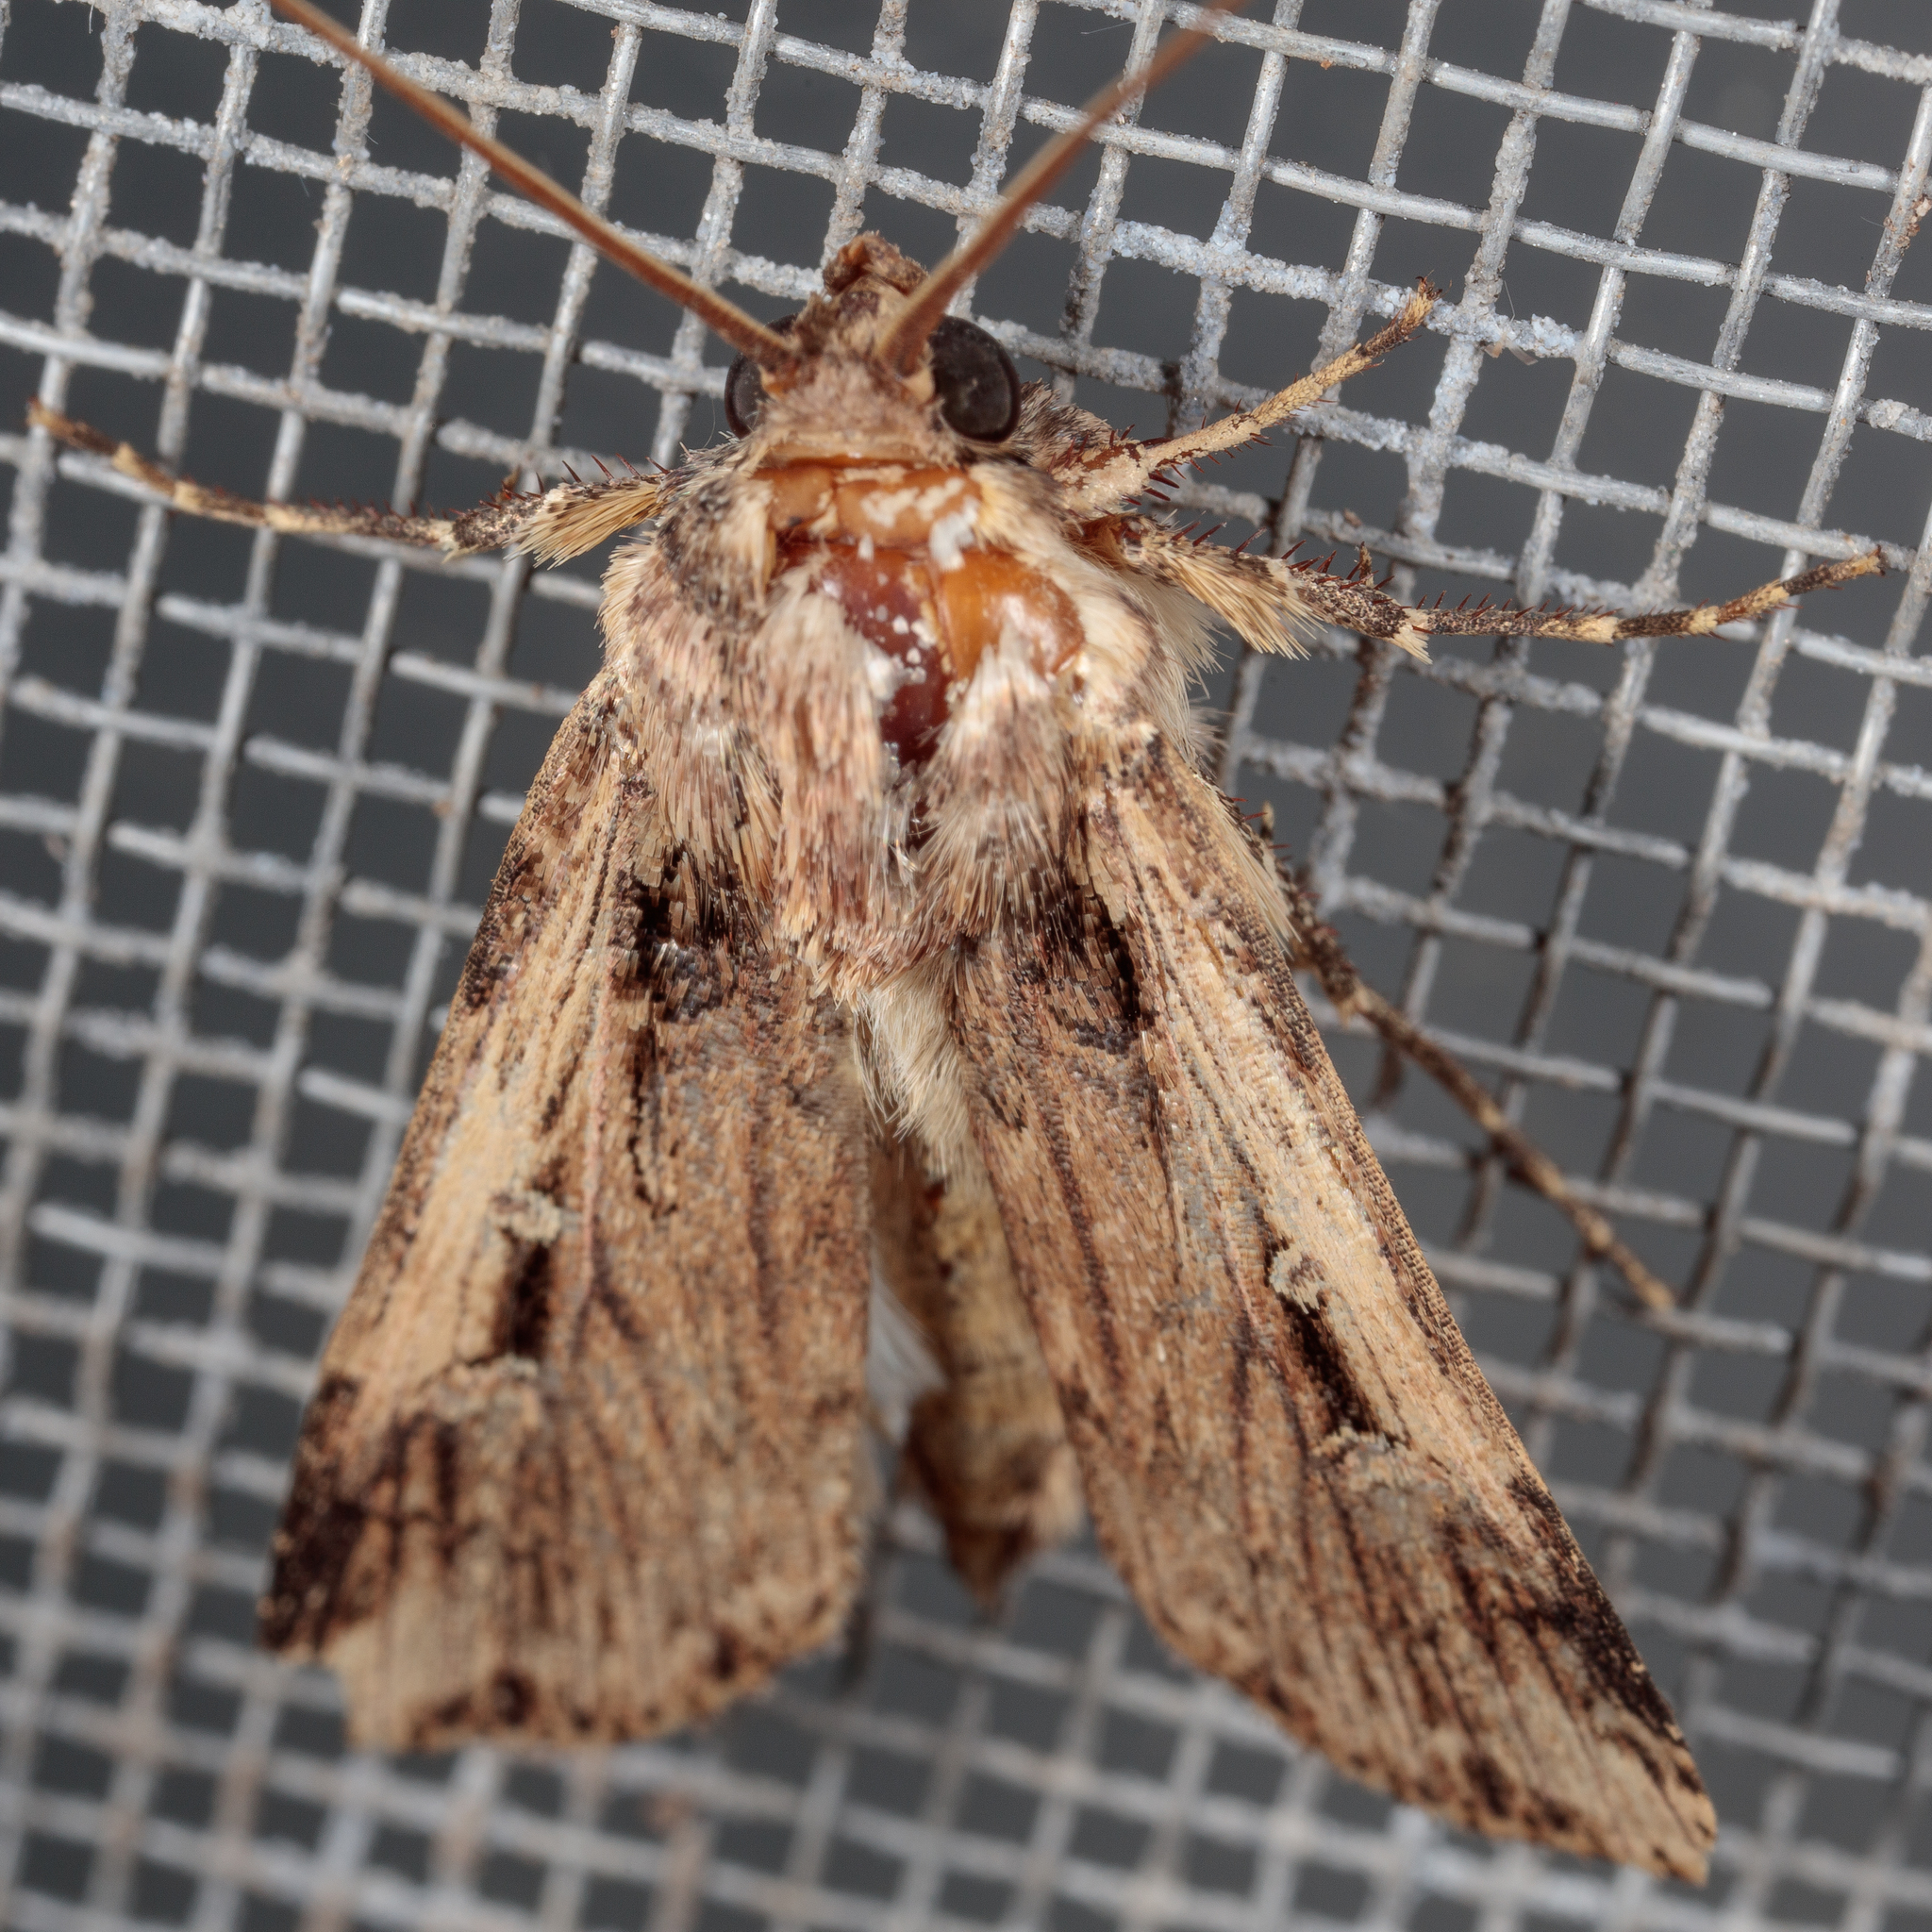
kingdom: Animalia
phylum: Arthropoda
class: Insecta
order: Lepidoptera
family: Noctuidae
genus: Feltia
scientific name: Feltia subterranea
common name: Granulate cutworm
